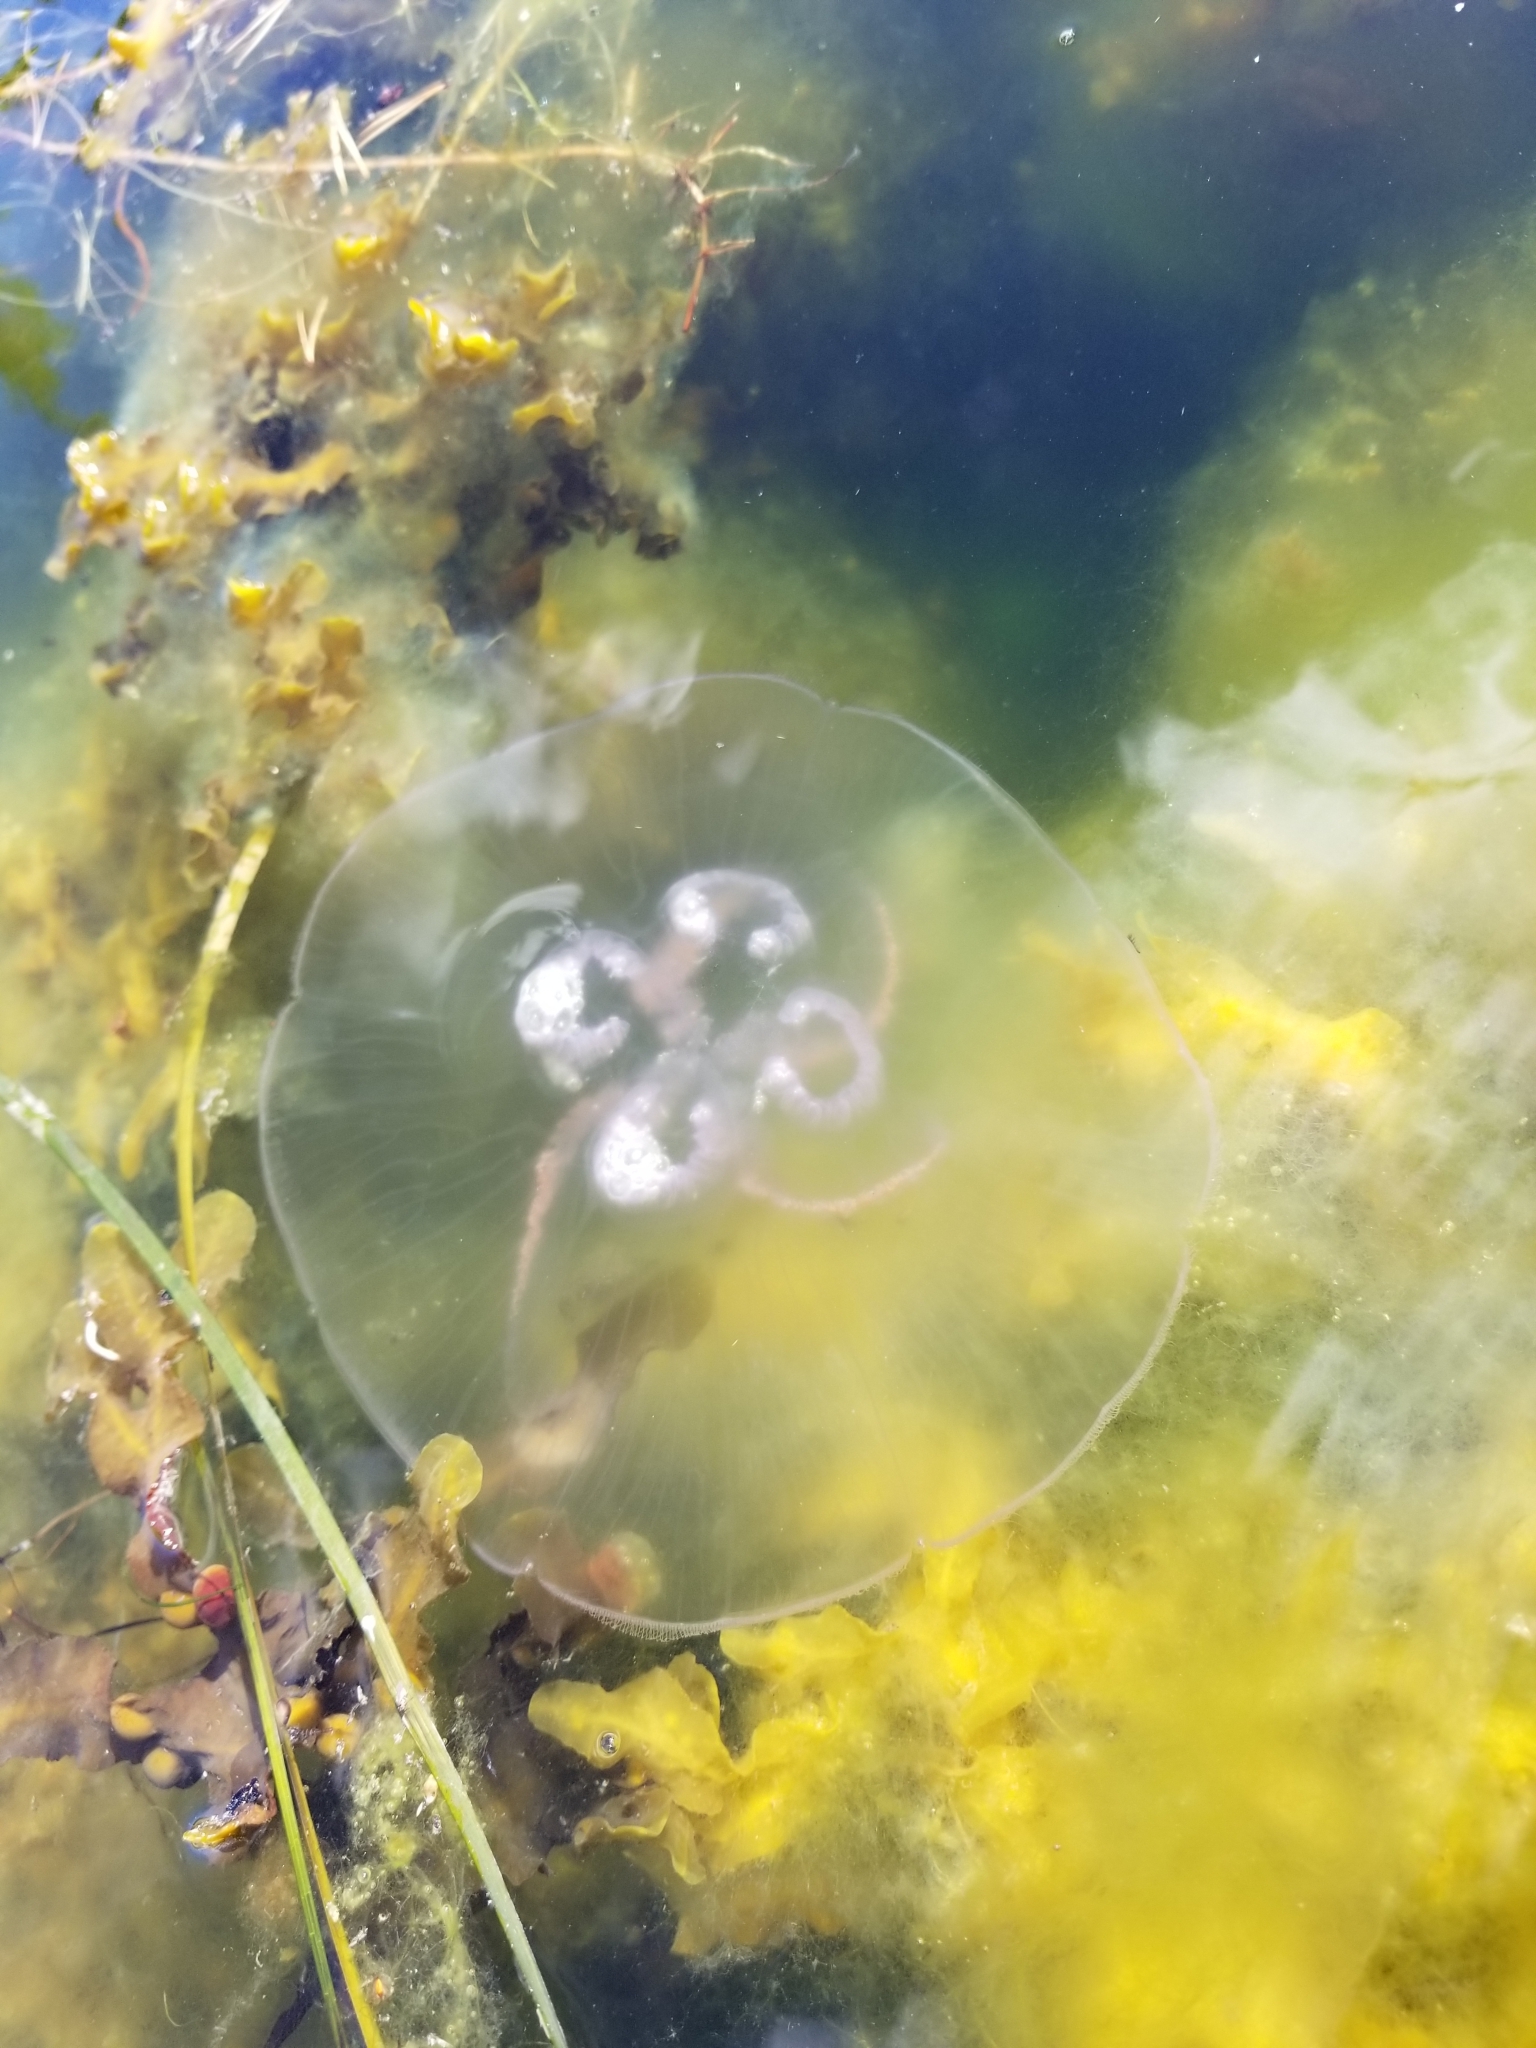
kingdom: Animalia
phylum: Cnidaria
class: Scyphozoa
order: Semaeostomeae
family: Ulmaridae
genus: Aurelia
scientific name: Aurelia aurita
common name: Moon jellyfish
